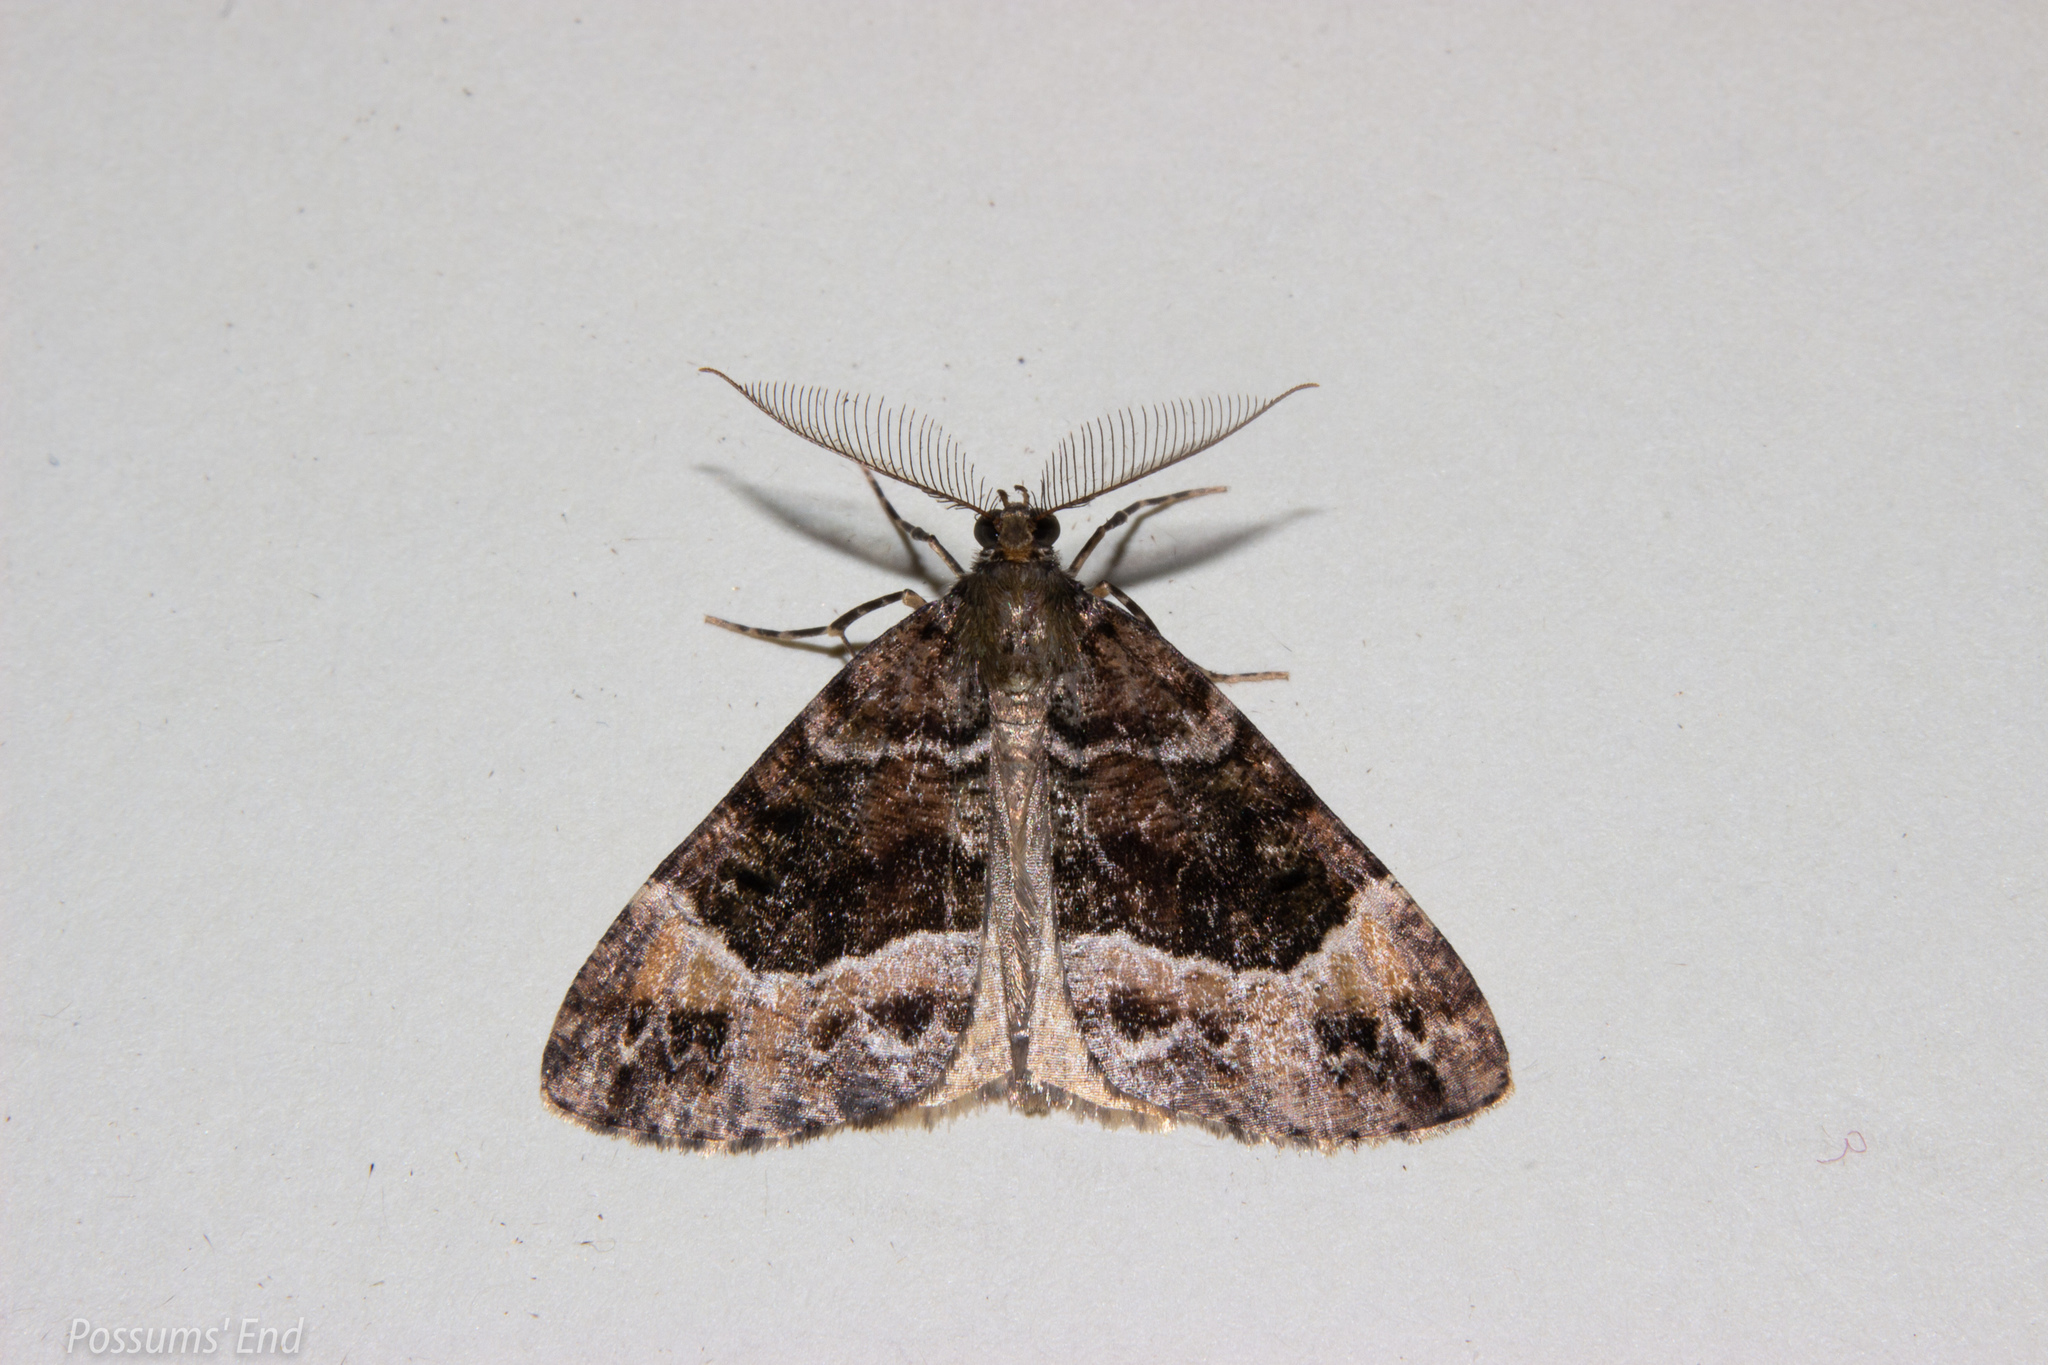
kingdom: Animalia
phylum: Arthropoda
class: Insecta
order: Lepidoptera
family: Geometridae
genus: Pseudocoremia
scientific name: Pseudocoremia productata
